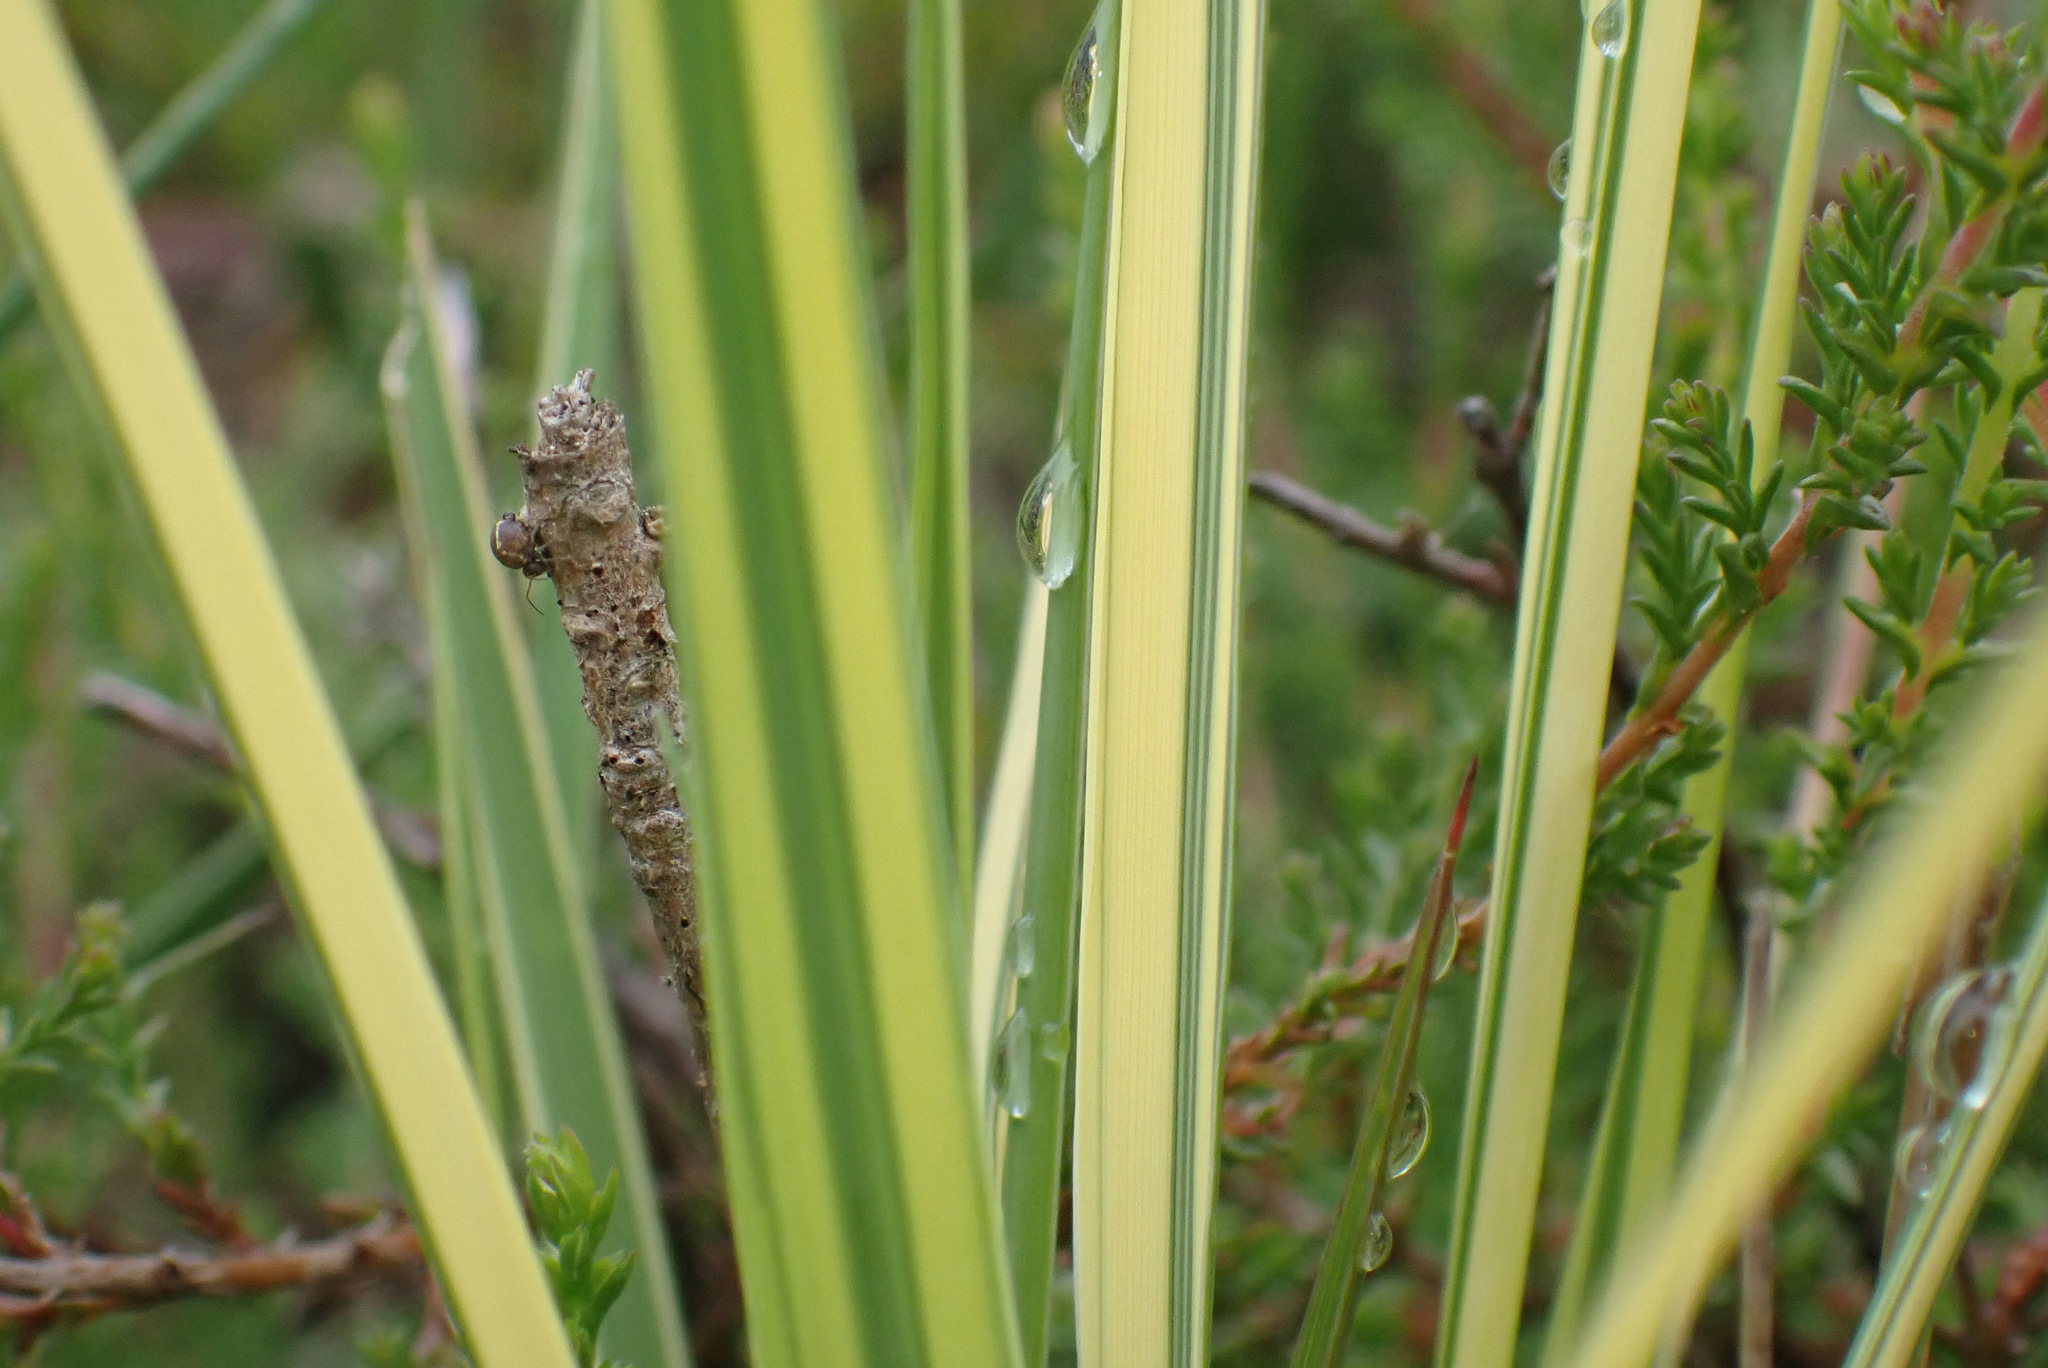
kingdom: Plantae
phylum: Tracheophyta
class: Liliopsida
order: Poales
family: Poaceae
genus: Molinia
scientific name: Molinia caerulea
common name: Purple moor-grass
